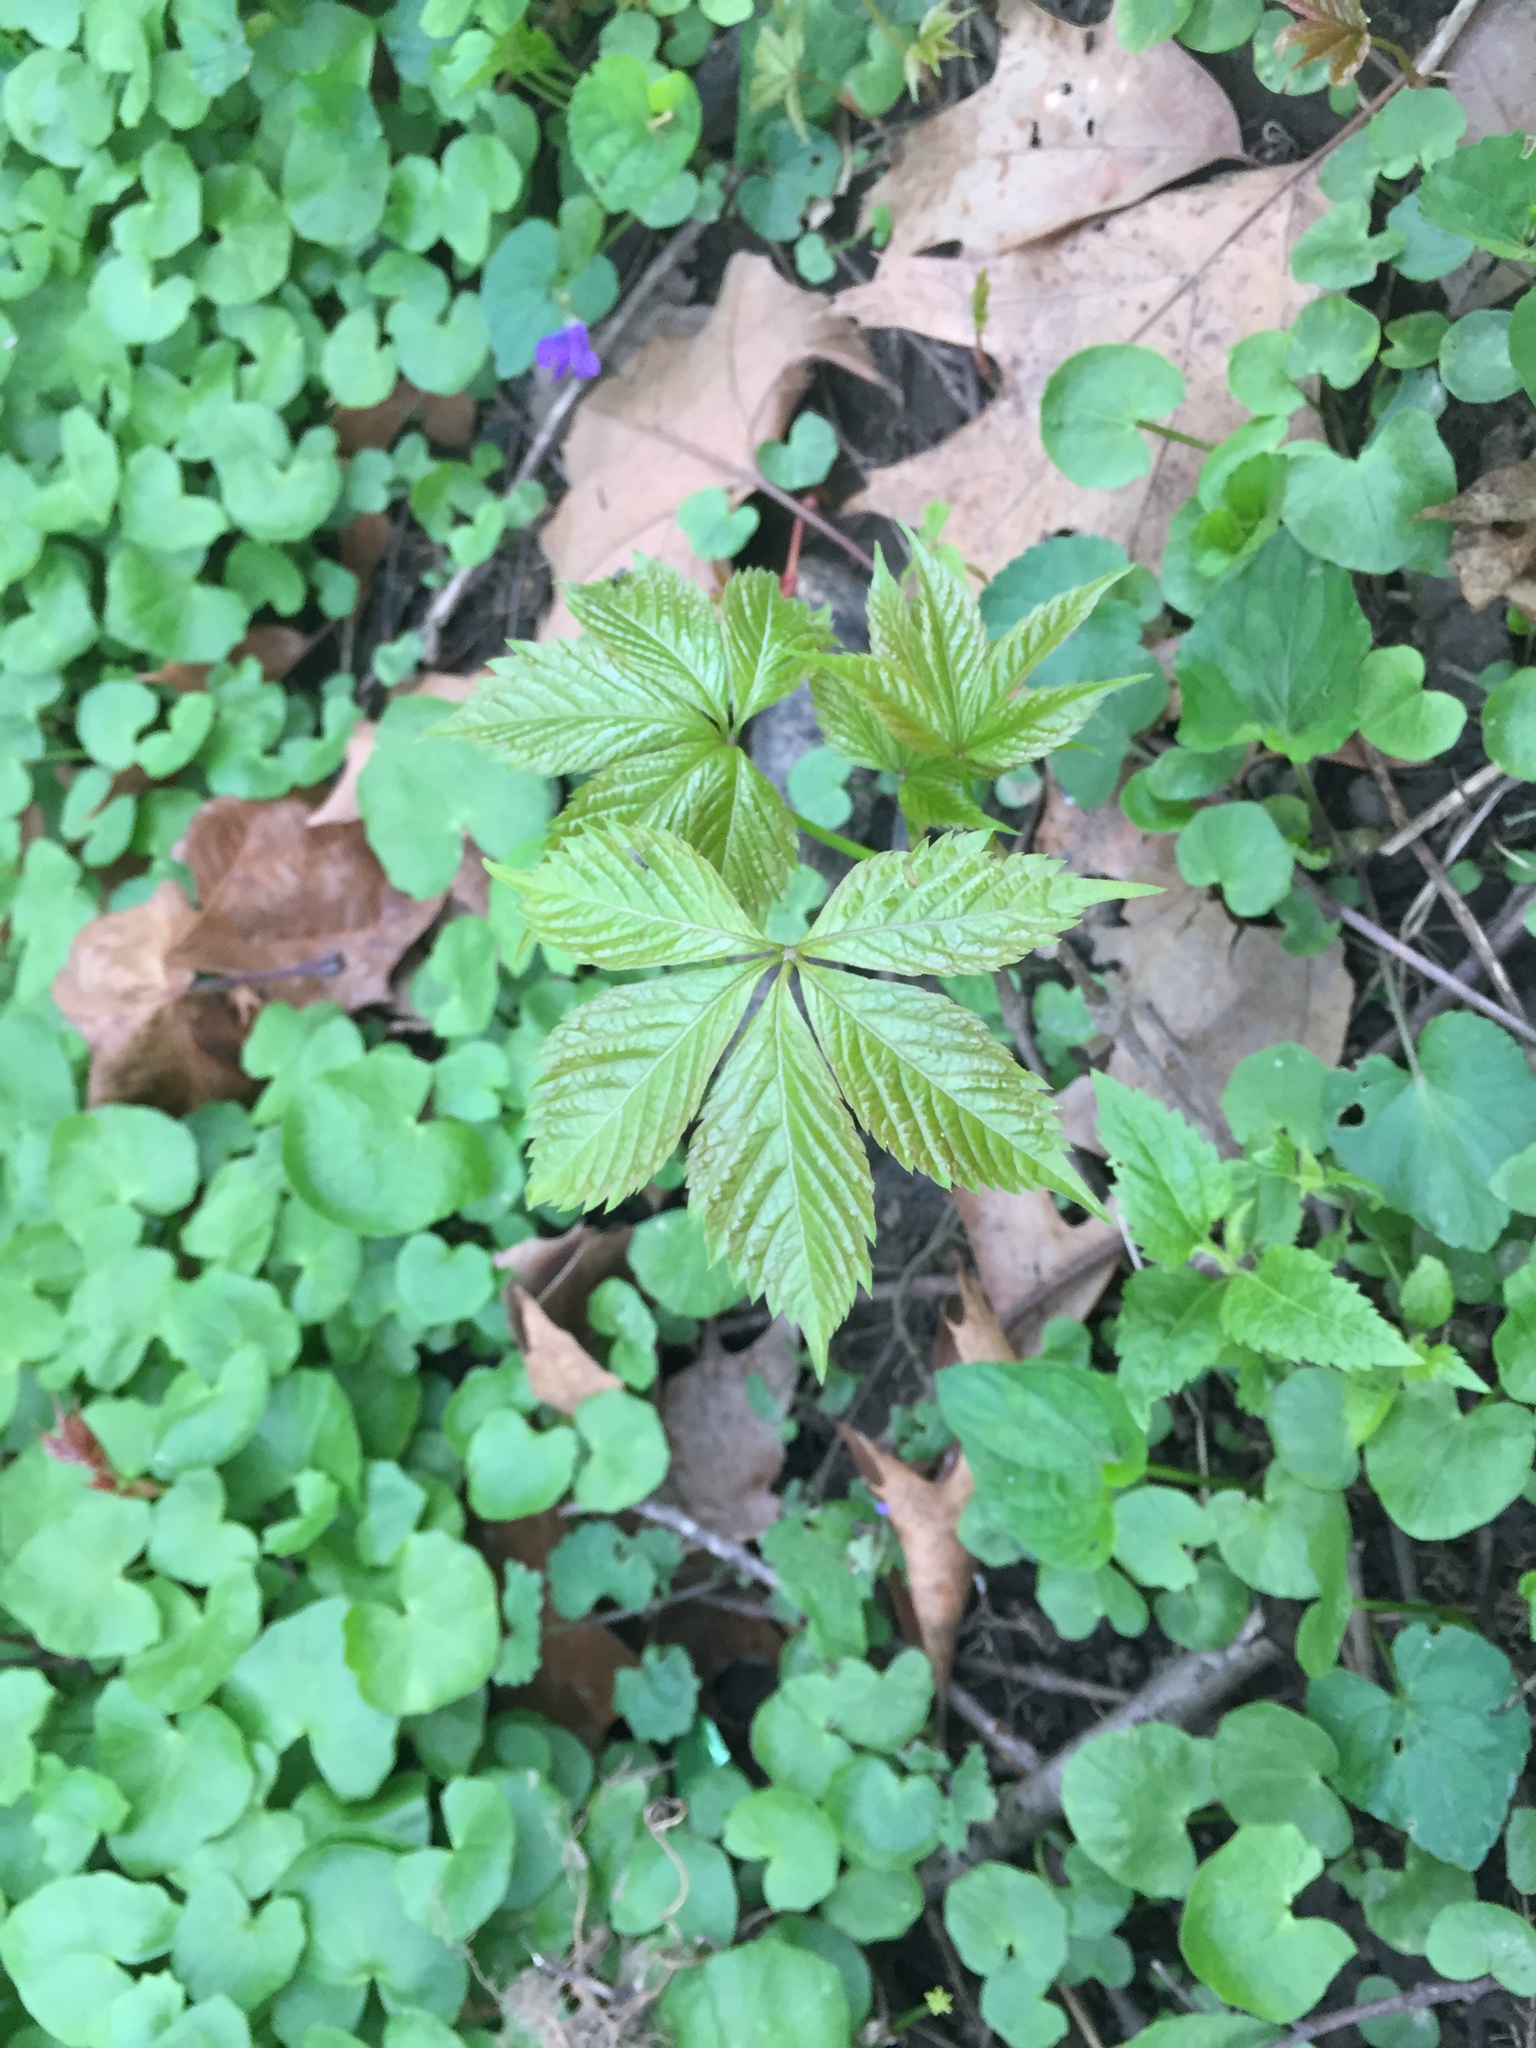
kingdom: Plantae
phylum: Tracheophyta
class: Magnoliopsida
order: Vitales
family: Vitaceae
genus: Parthenocissus
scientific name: Parthenocissus quinquefolia
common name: Virginia-creeper
